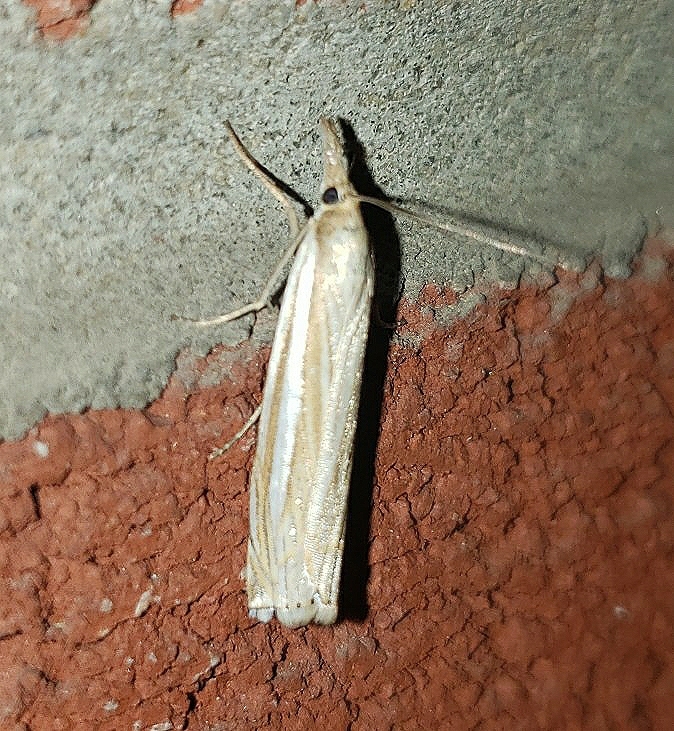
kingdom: Animalia
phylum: Arthropoda
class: Insecta
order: Lepidoptera
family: Crambidae
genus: Crambus
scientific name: Crambus laqueatellus
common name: Eastern grass-veneer
